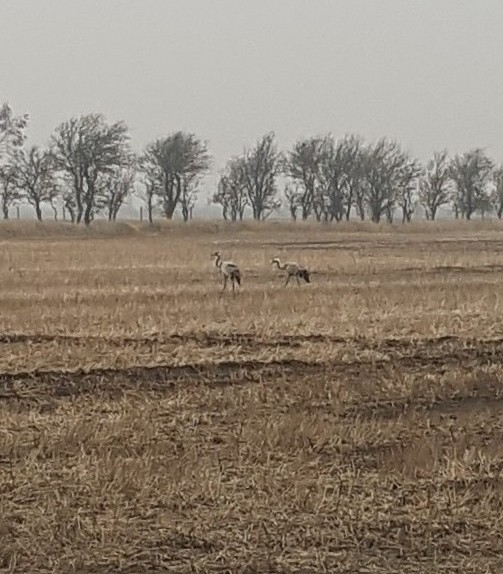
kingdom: Animalia
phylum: Chordata
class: Aves
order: Gruiformes
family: Gruidae
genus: Grus
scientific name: Grus grus
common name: Common crane
